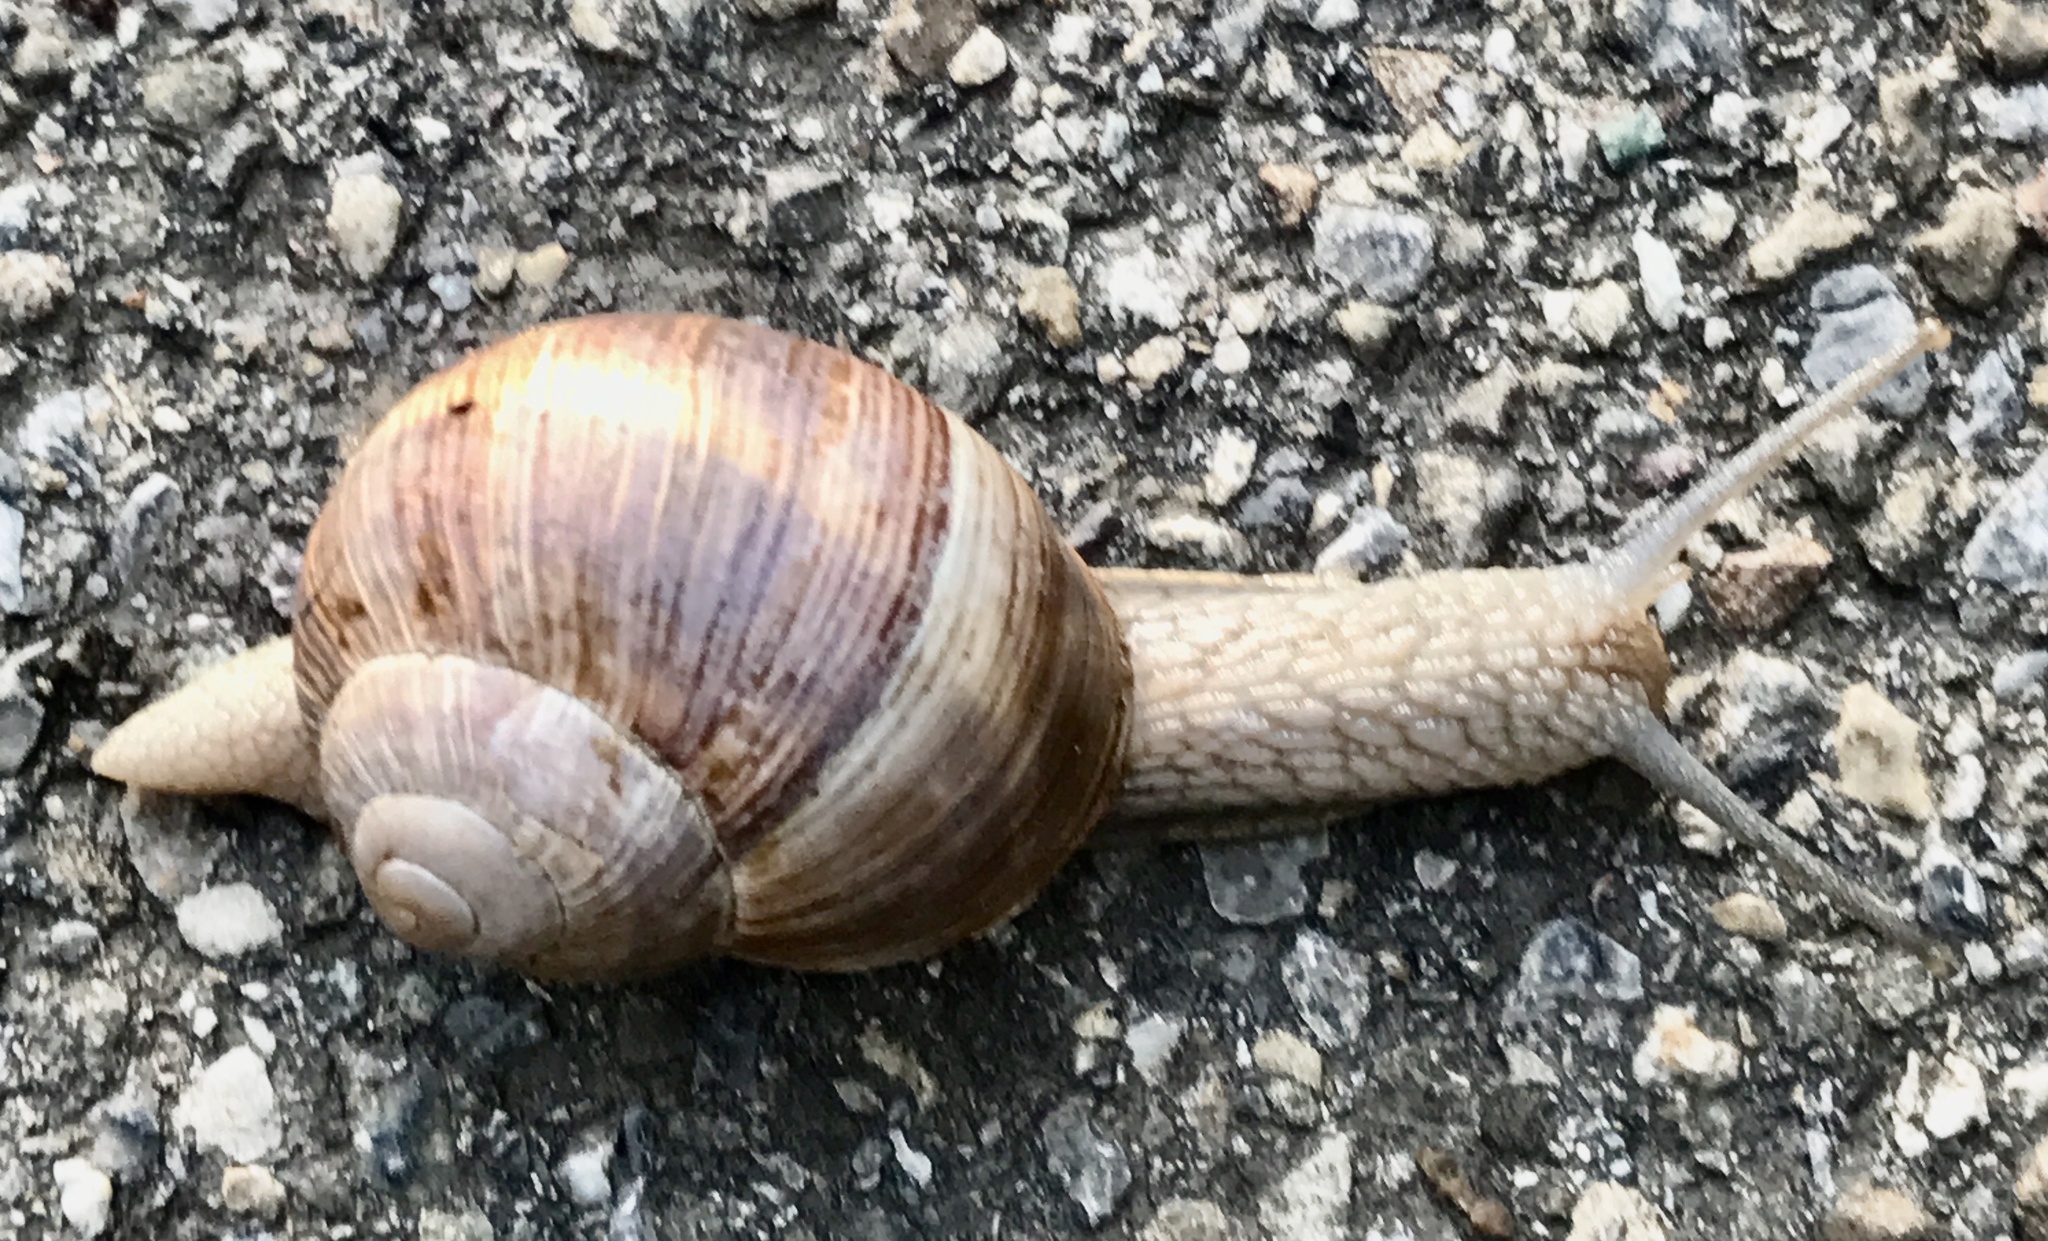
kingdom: Animalia
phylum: Mollusca
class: Gastropoda
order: Stylommatophora
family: Helicidae
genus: Helix
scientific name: Helix pomatia
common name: Roman snail
